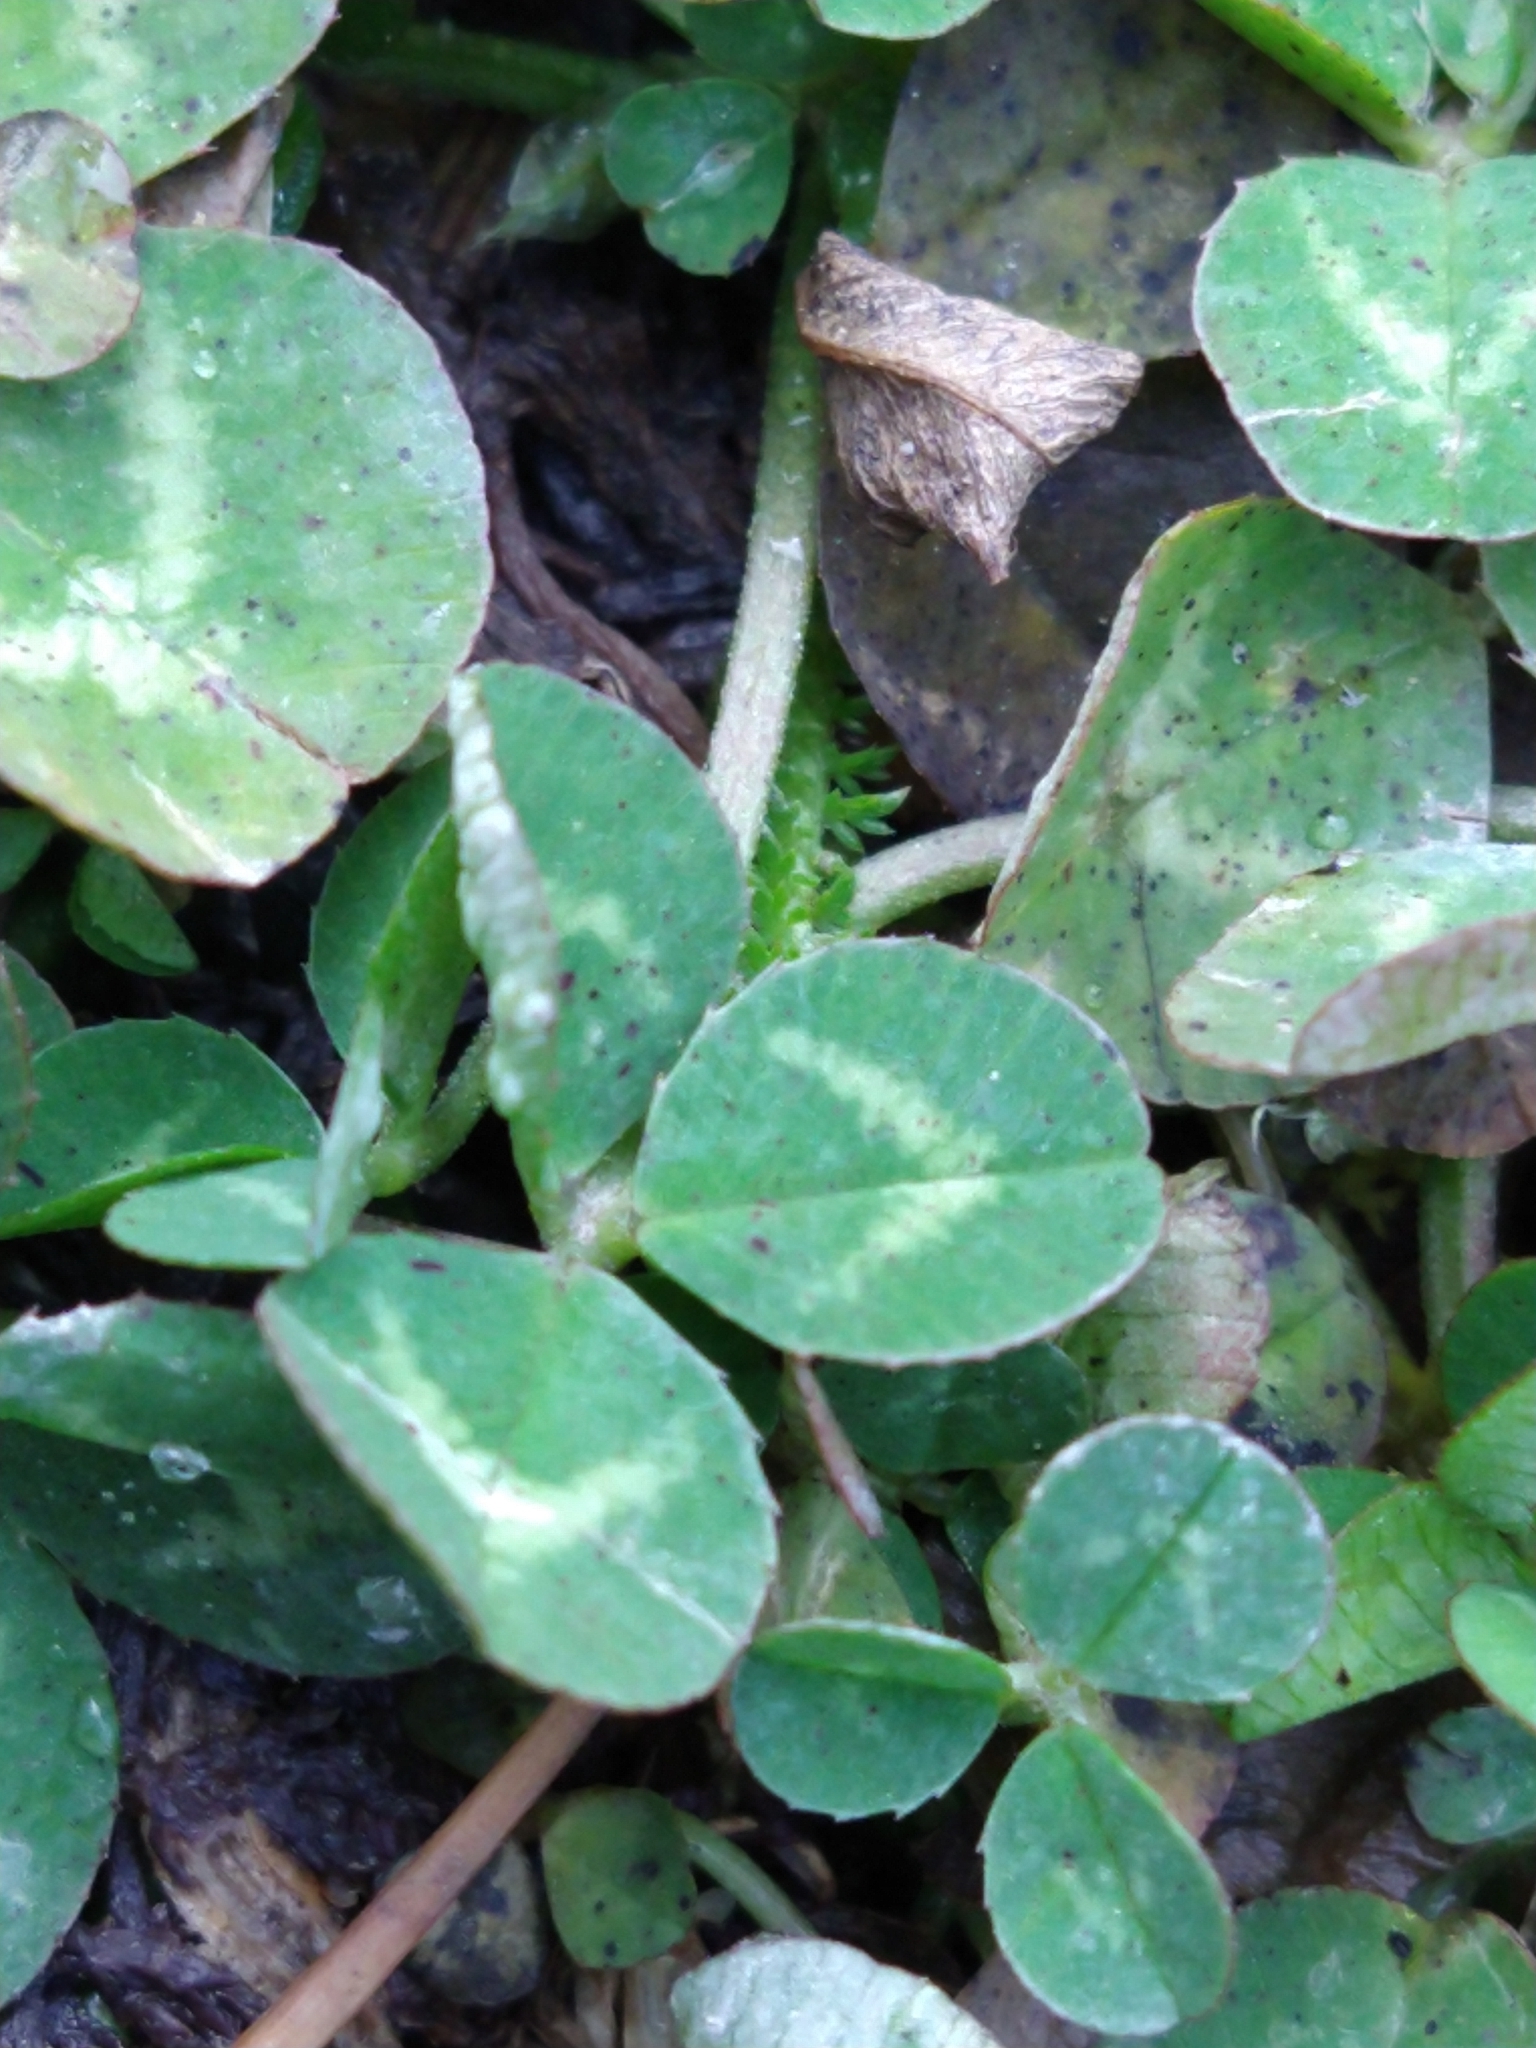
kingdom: Plantae
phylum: Tracheophyta
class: Magnoliopsida
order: Fabales
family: Fabaceae
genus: Trifolium
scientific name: Trifolium repens
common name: White clover
